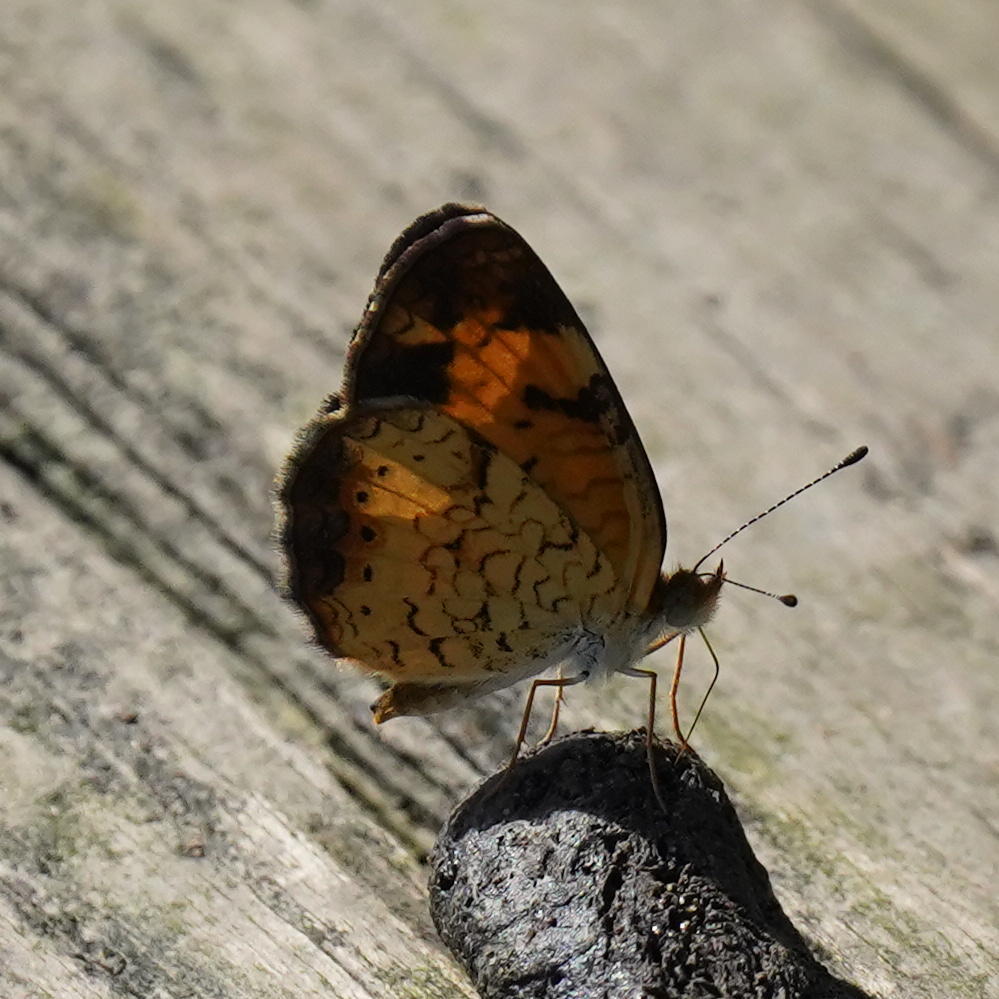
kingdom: Animalia
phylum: Arthropoda
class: Insecta
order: Lepidoptera
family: Nymphalidae
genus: Phyciodes
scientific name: Phyciodes tharos
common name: Pearl crescent
